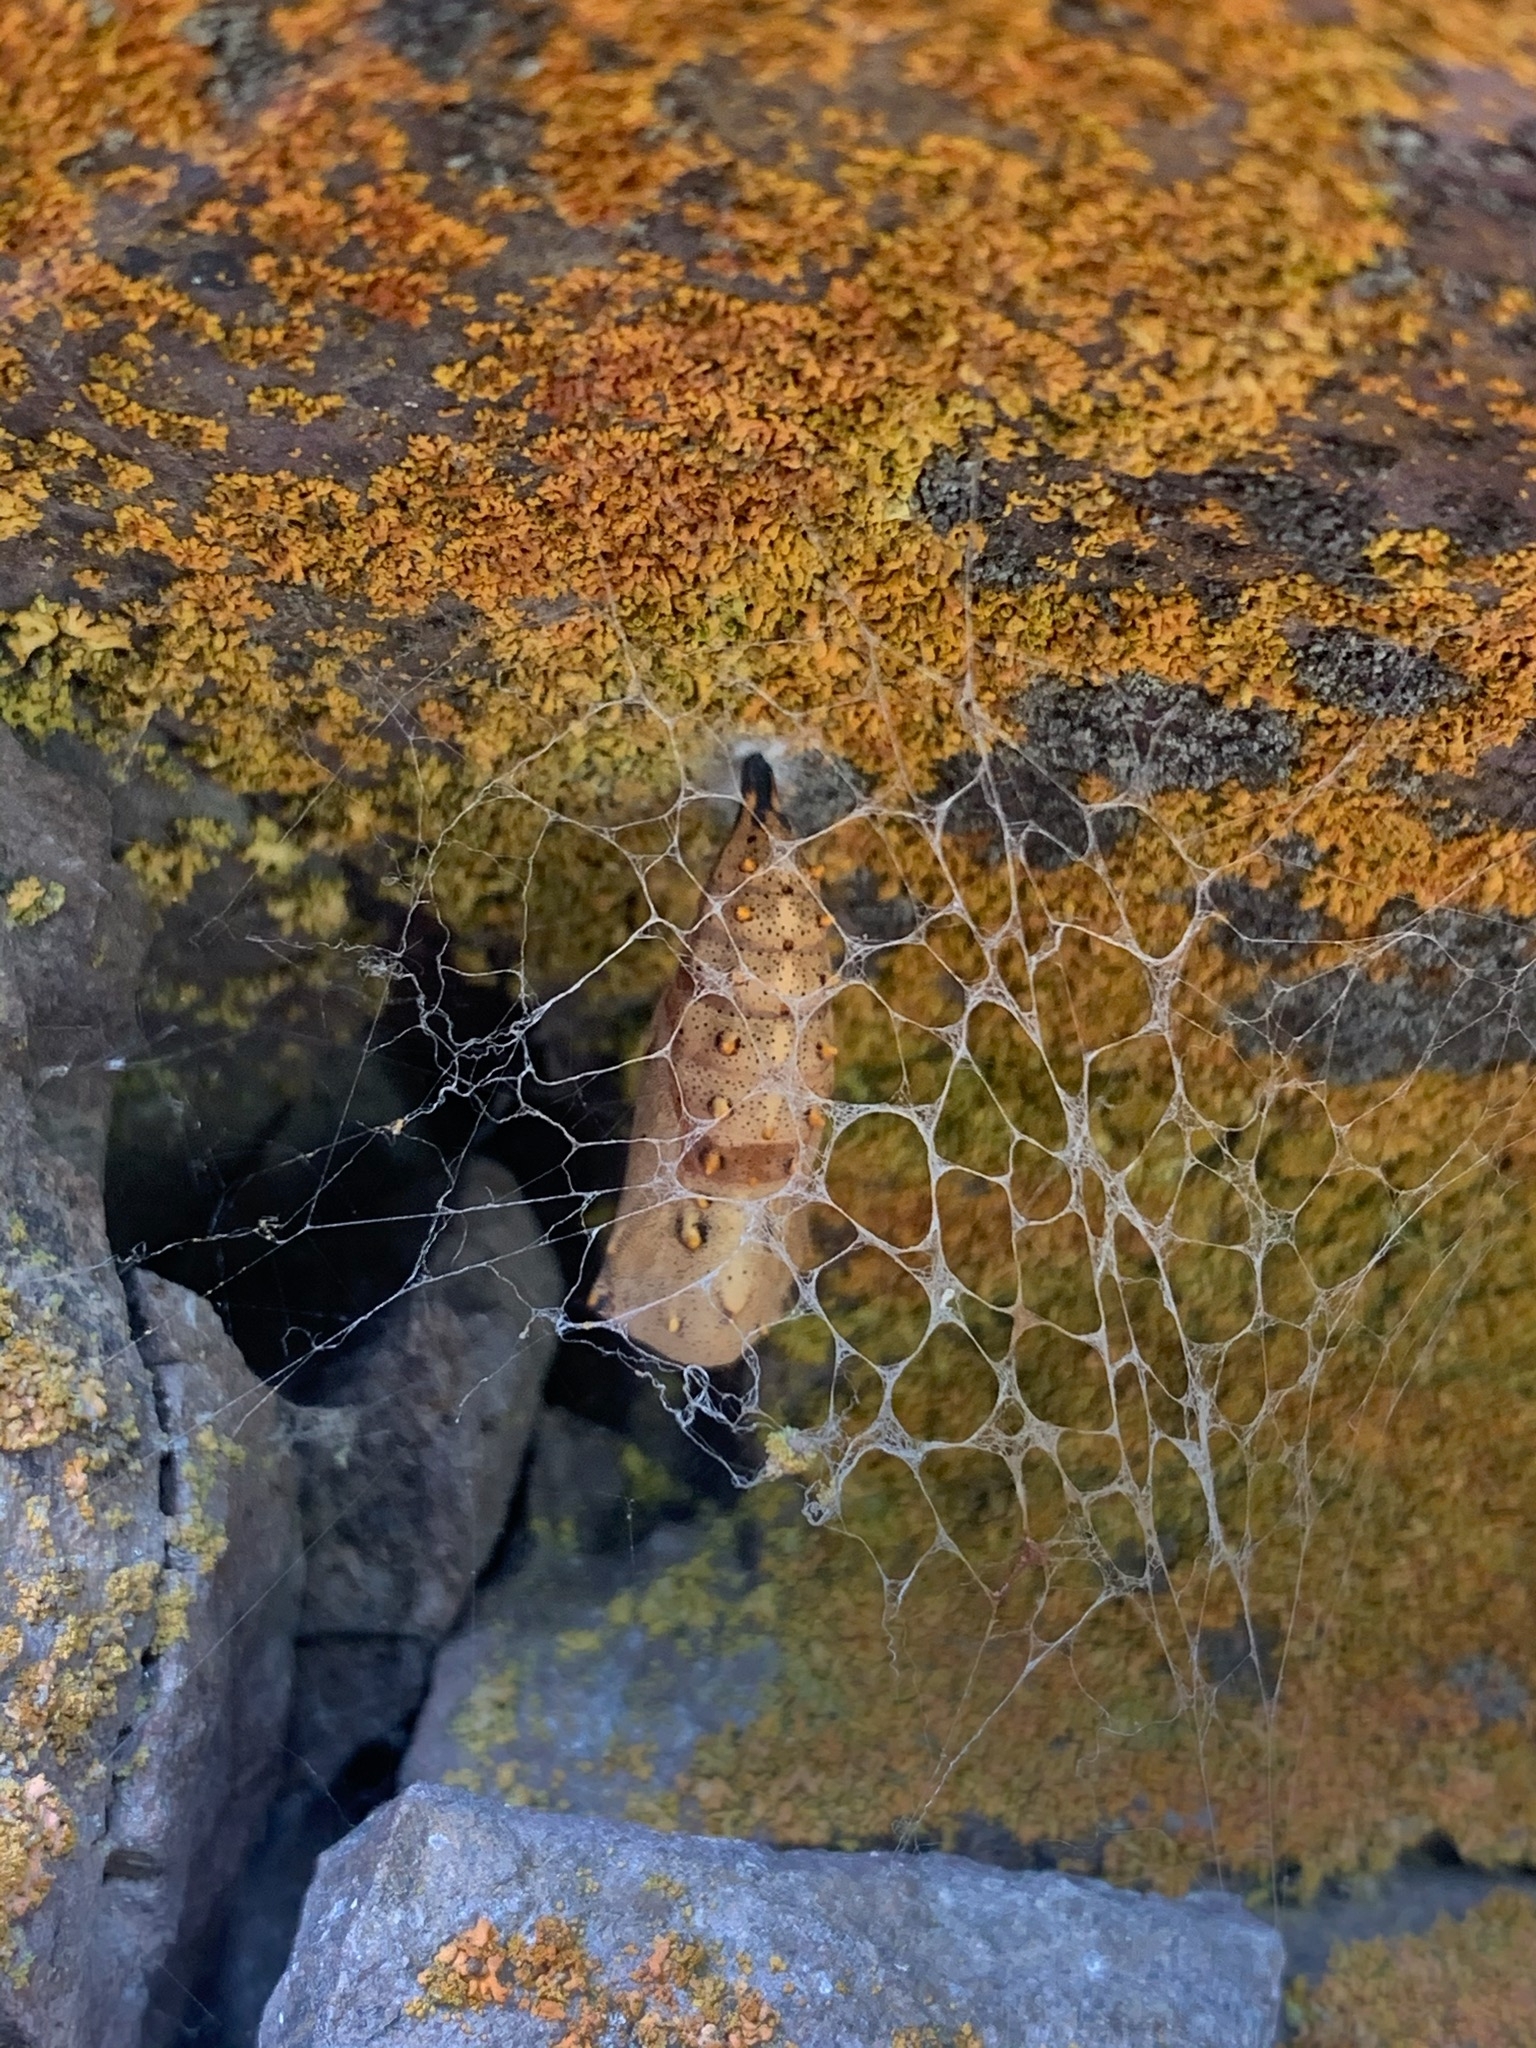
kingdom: Animalia
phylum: Arthropoda
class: Insecta
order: Lepidoptera
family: Nymphalidae
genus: Nymphalis
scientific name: Nymphalis antiopa
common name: Camberwell beauty
